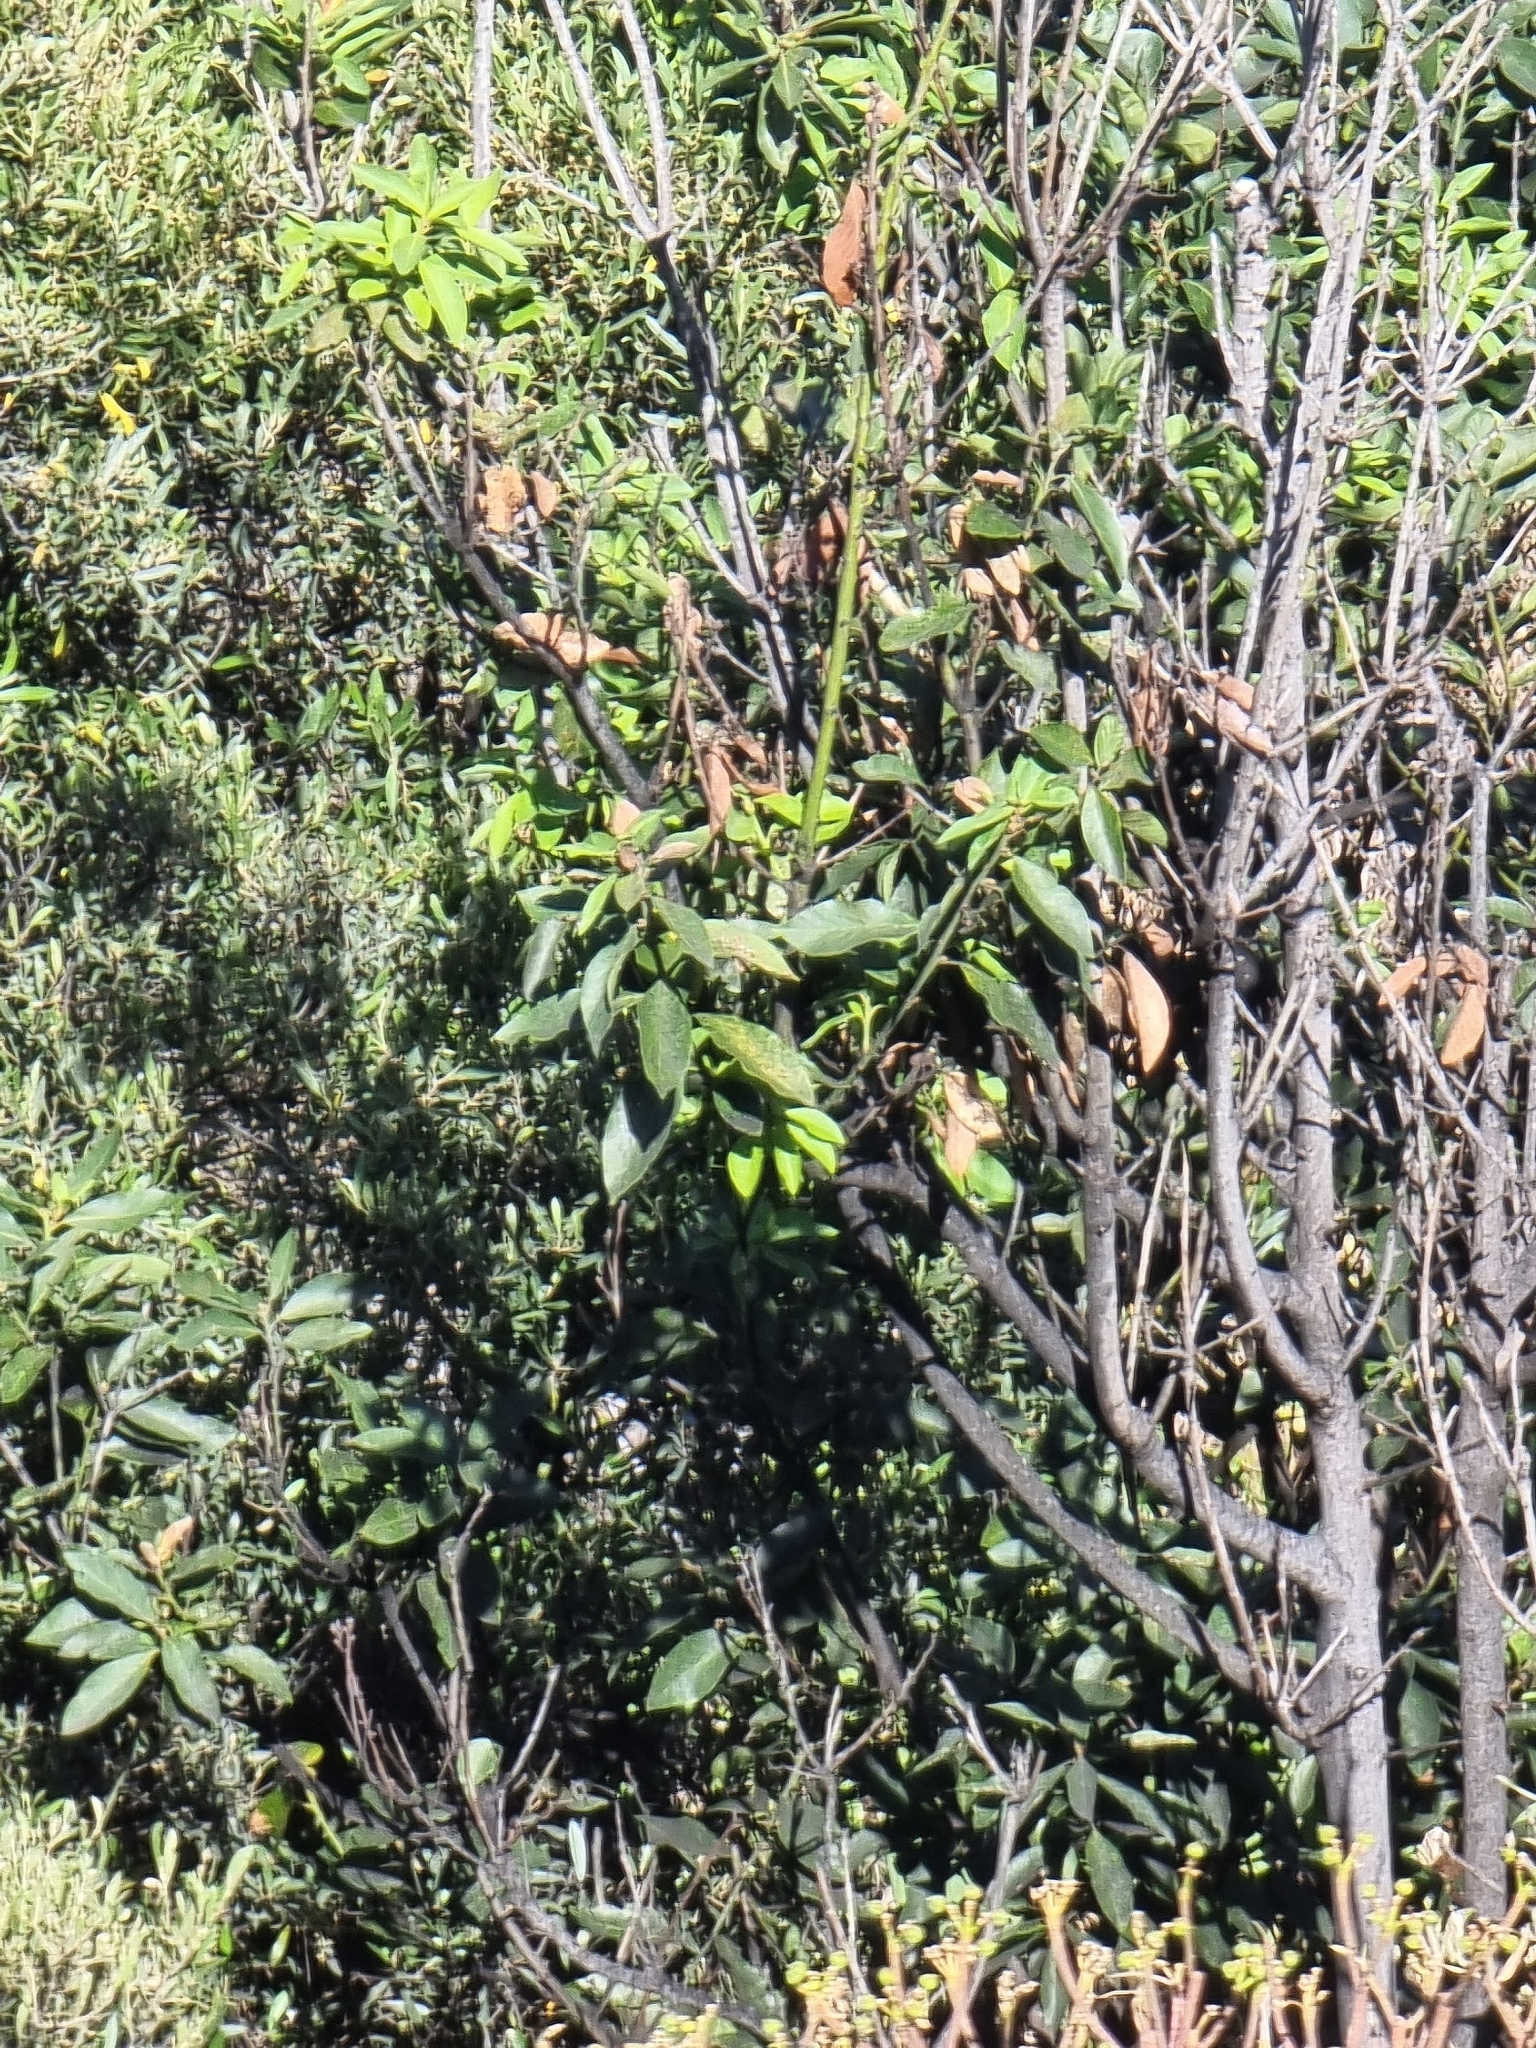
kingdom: Plantae
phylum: Tracheophyta
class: Magnoliopsida
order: Laurales
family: Lauraceae
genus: Laurus
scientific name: Laurus novocanariensis
